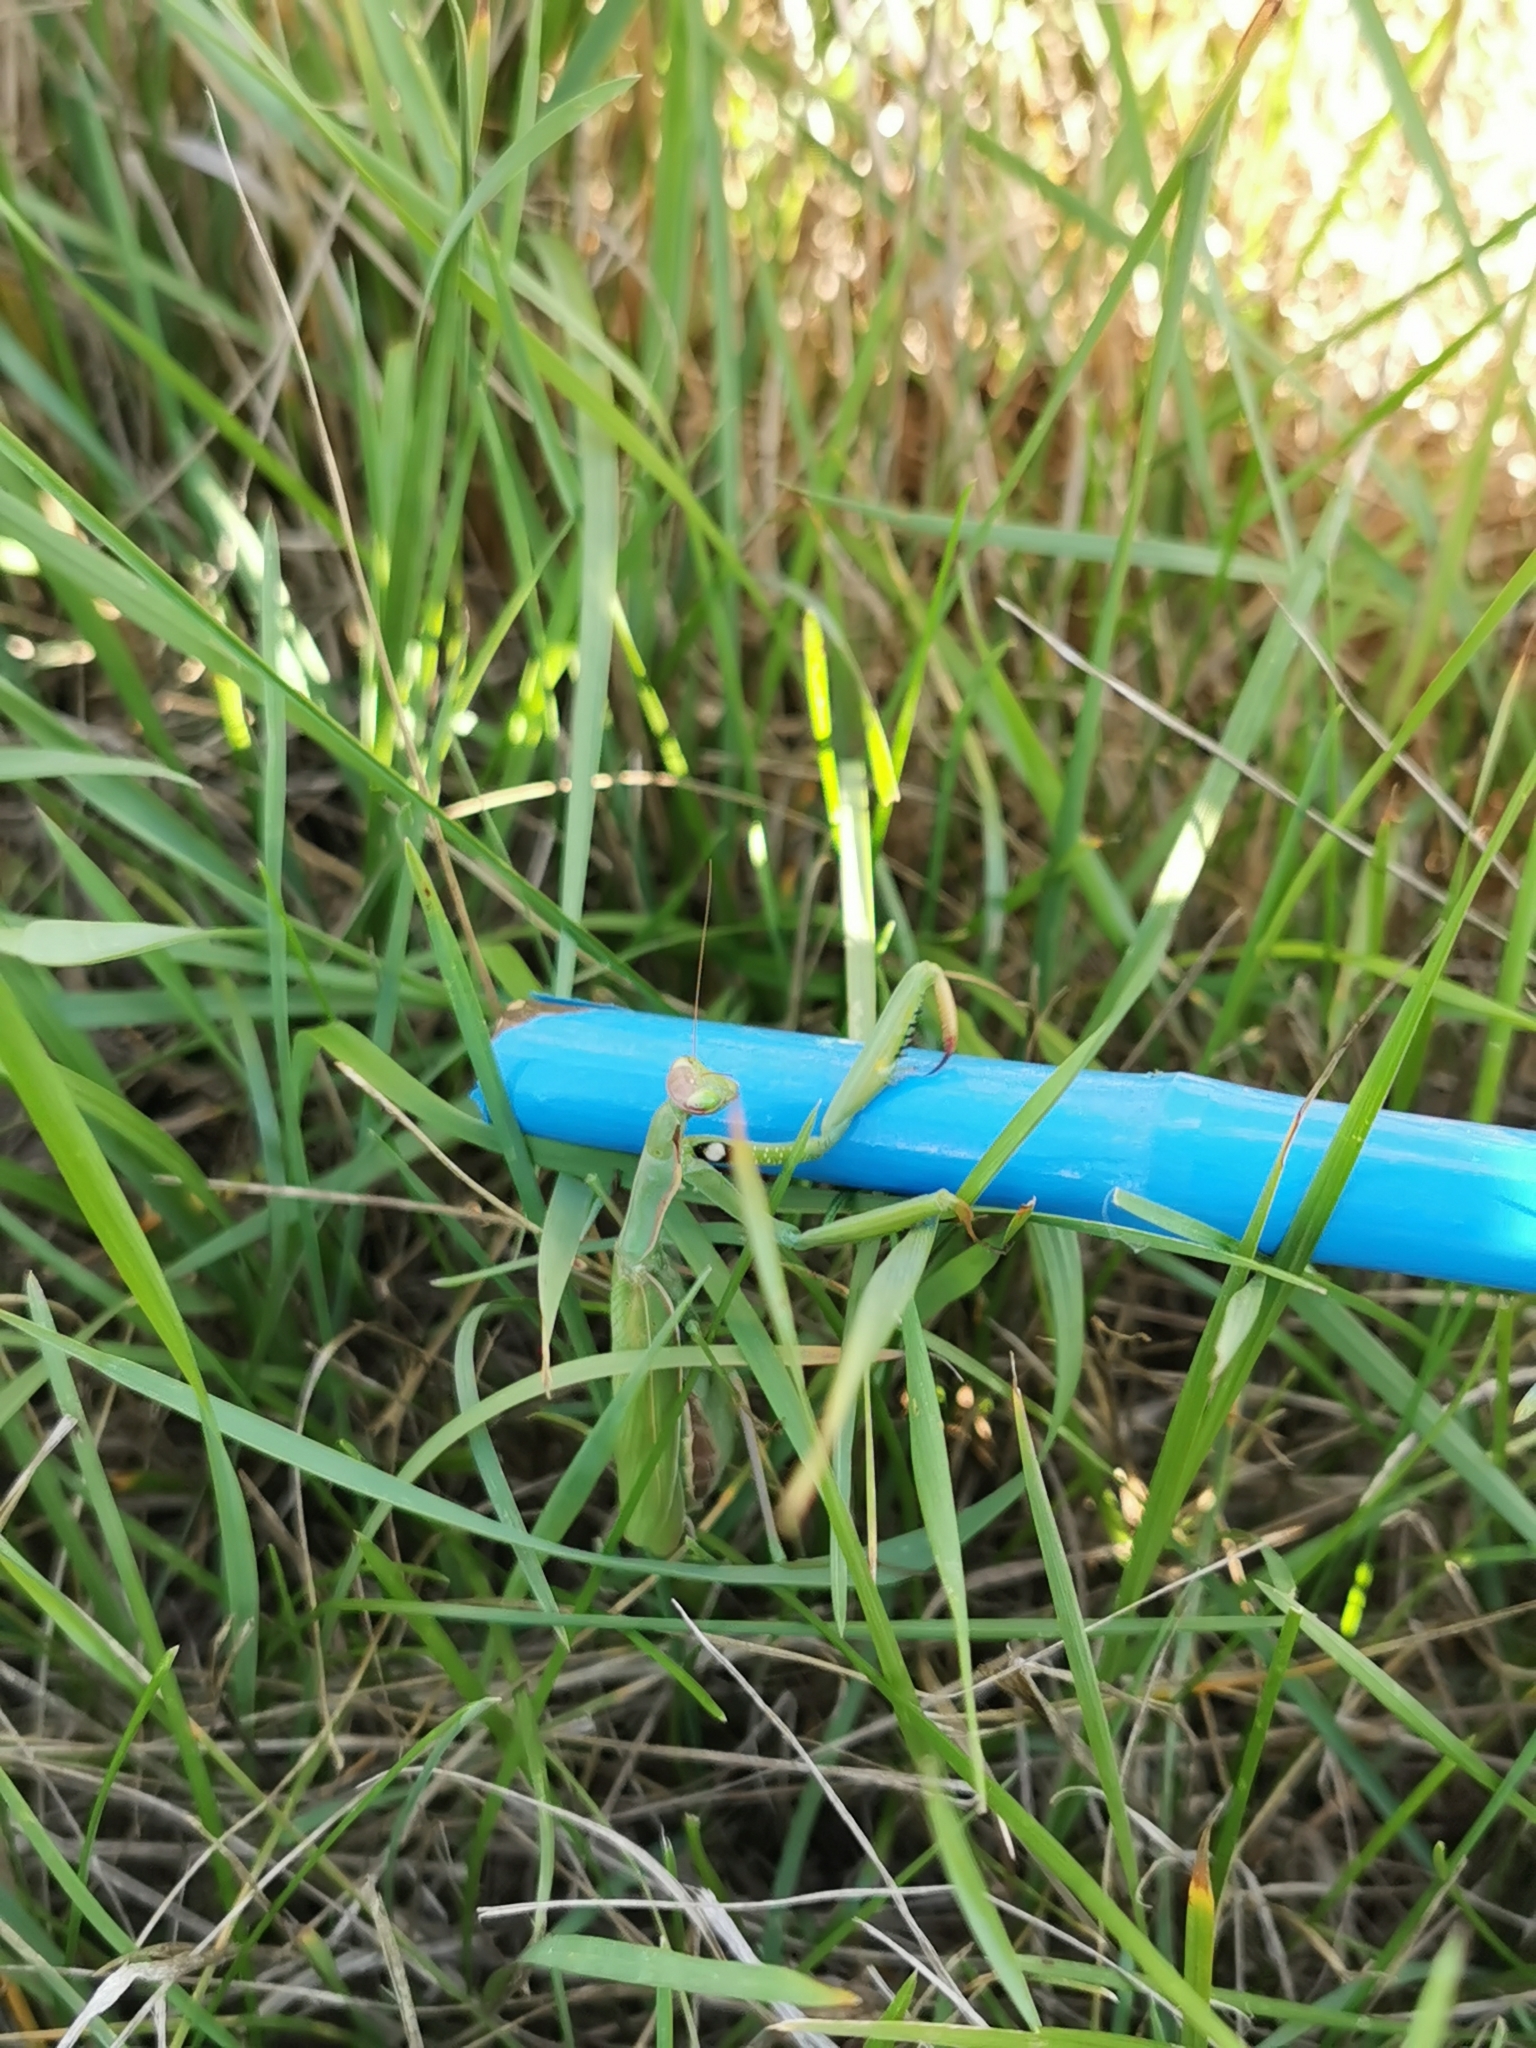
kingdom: Animalia
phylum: Arthropoda
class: Insecta
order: Mantodea
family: Mantidae
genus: Mantis
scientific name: Mantis religiosa
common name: Praying mantis
